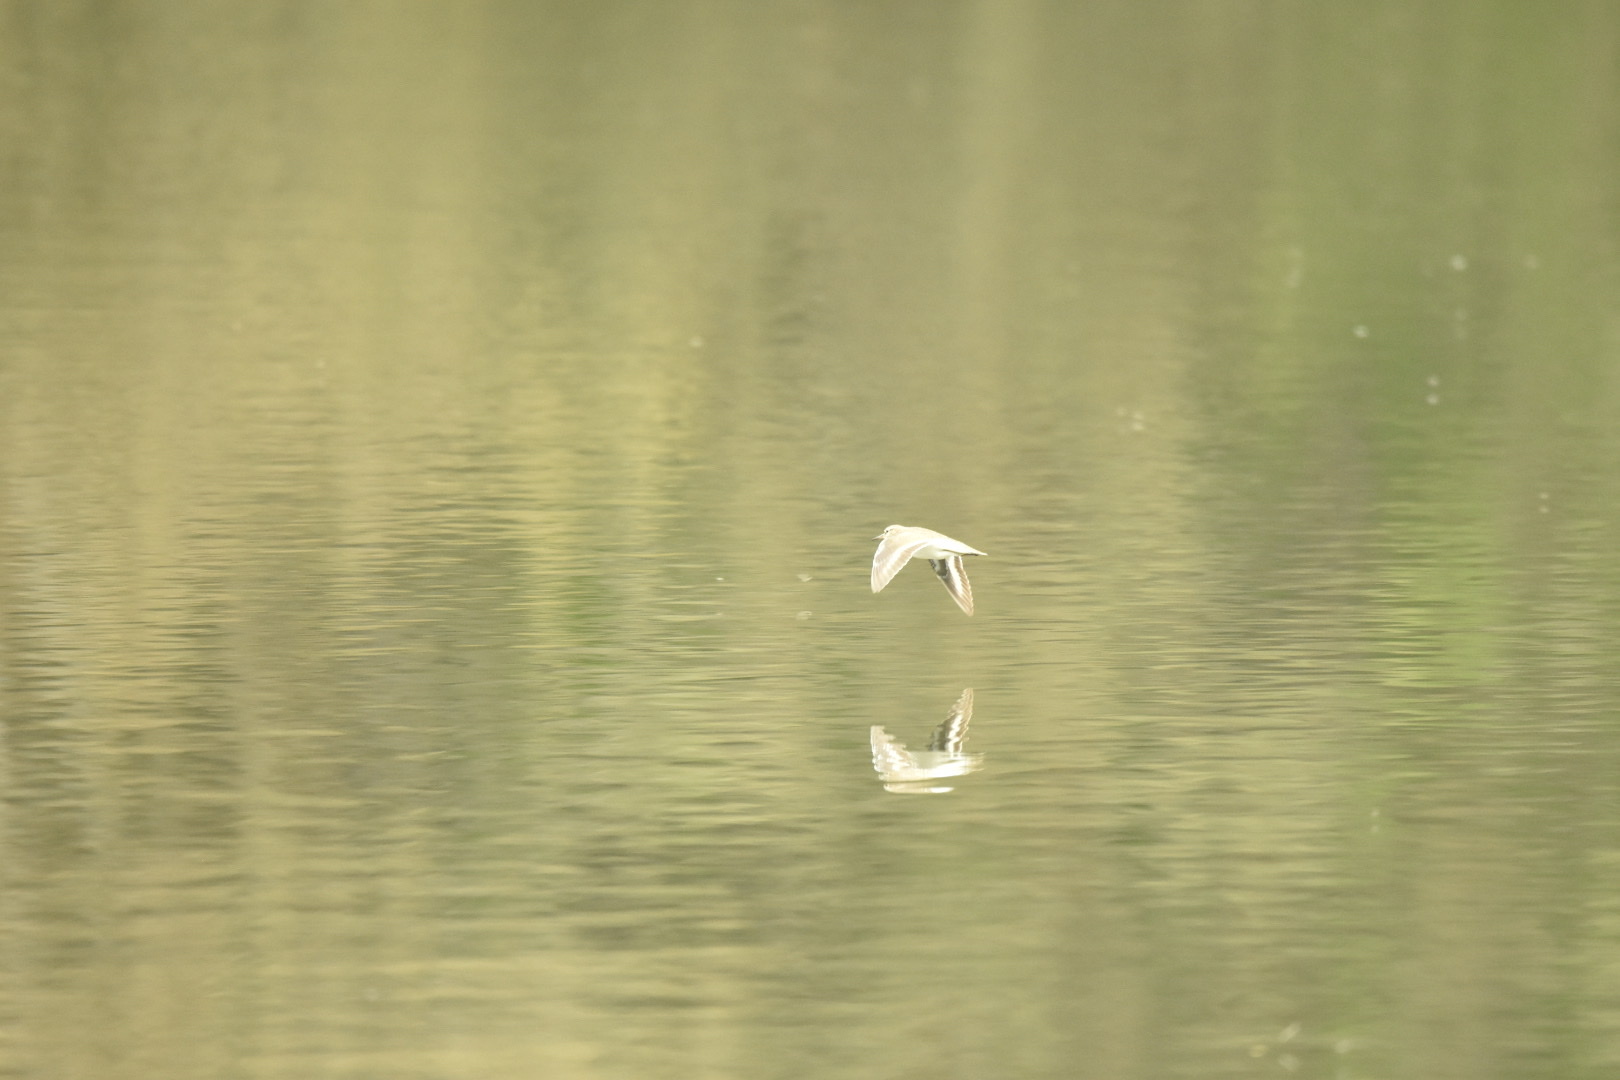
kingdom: Animalia
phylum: Chordata
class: Aves
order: Charadriiformes
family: Scolopacidae
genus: Actitis
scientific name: Actitis hypoleucos
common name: Common sandpiper
